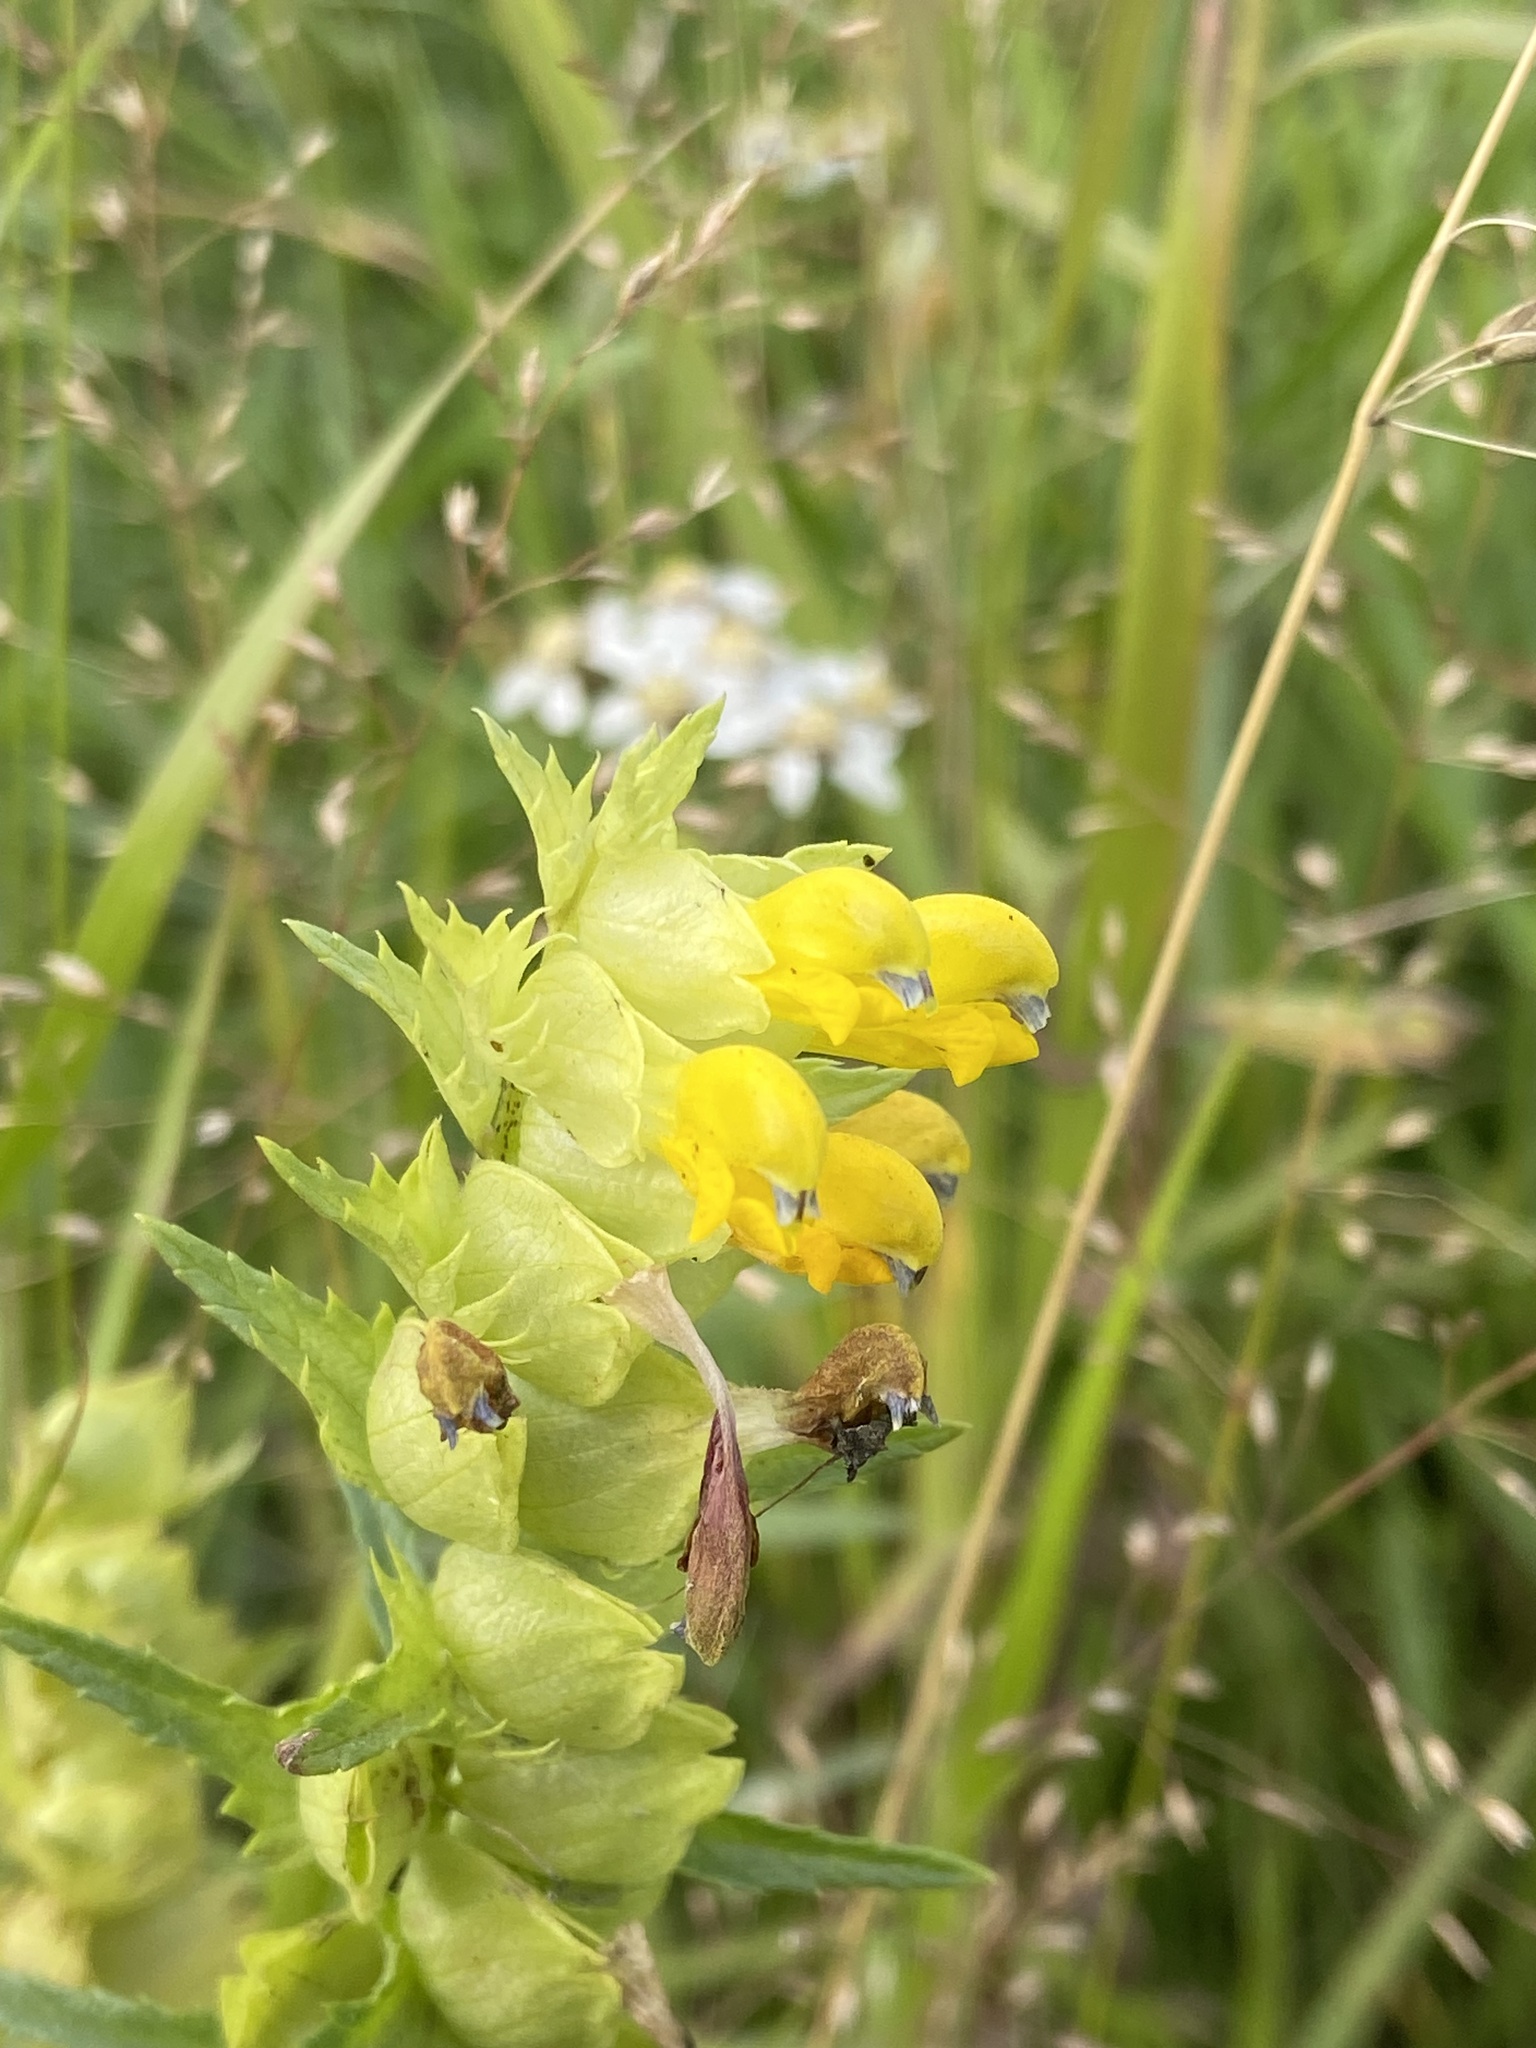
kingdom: Plantae
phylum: Tracheophyta
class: Magnoliopsida
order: Lamiales
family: Orobanchaceae
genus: Rhinanthus
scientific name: Rhinanthus serotinus
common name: Late-flowering yellow rattle
